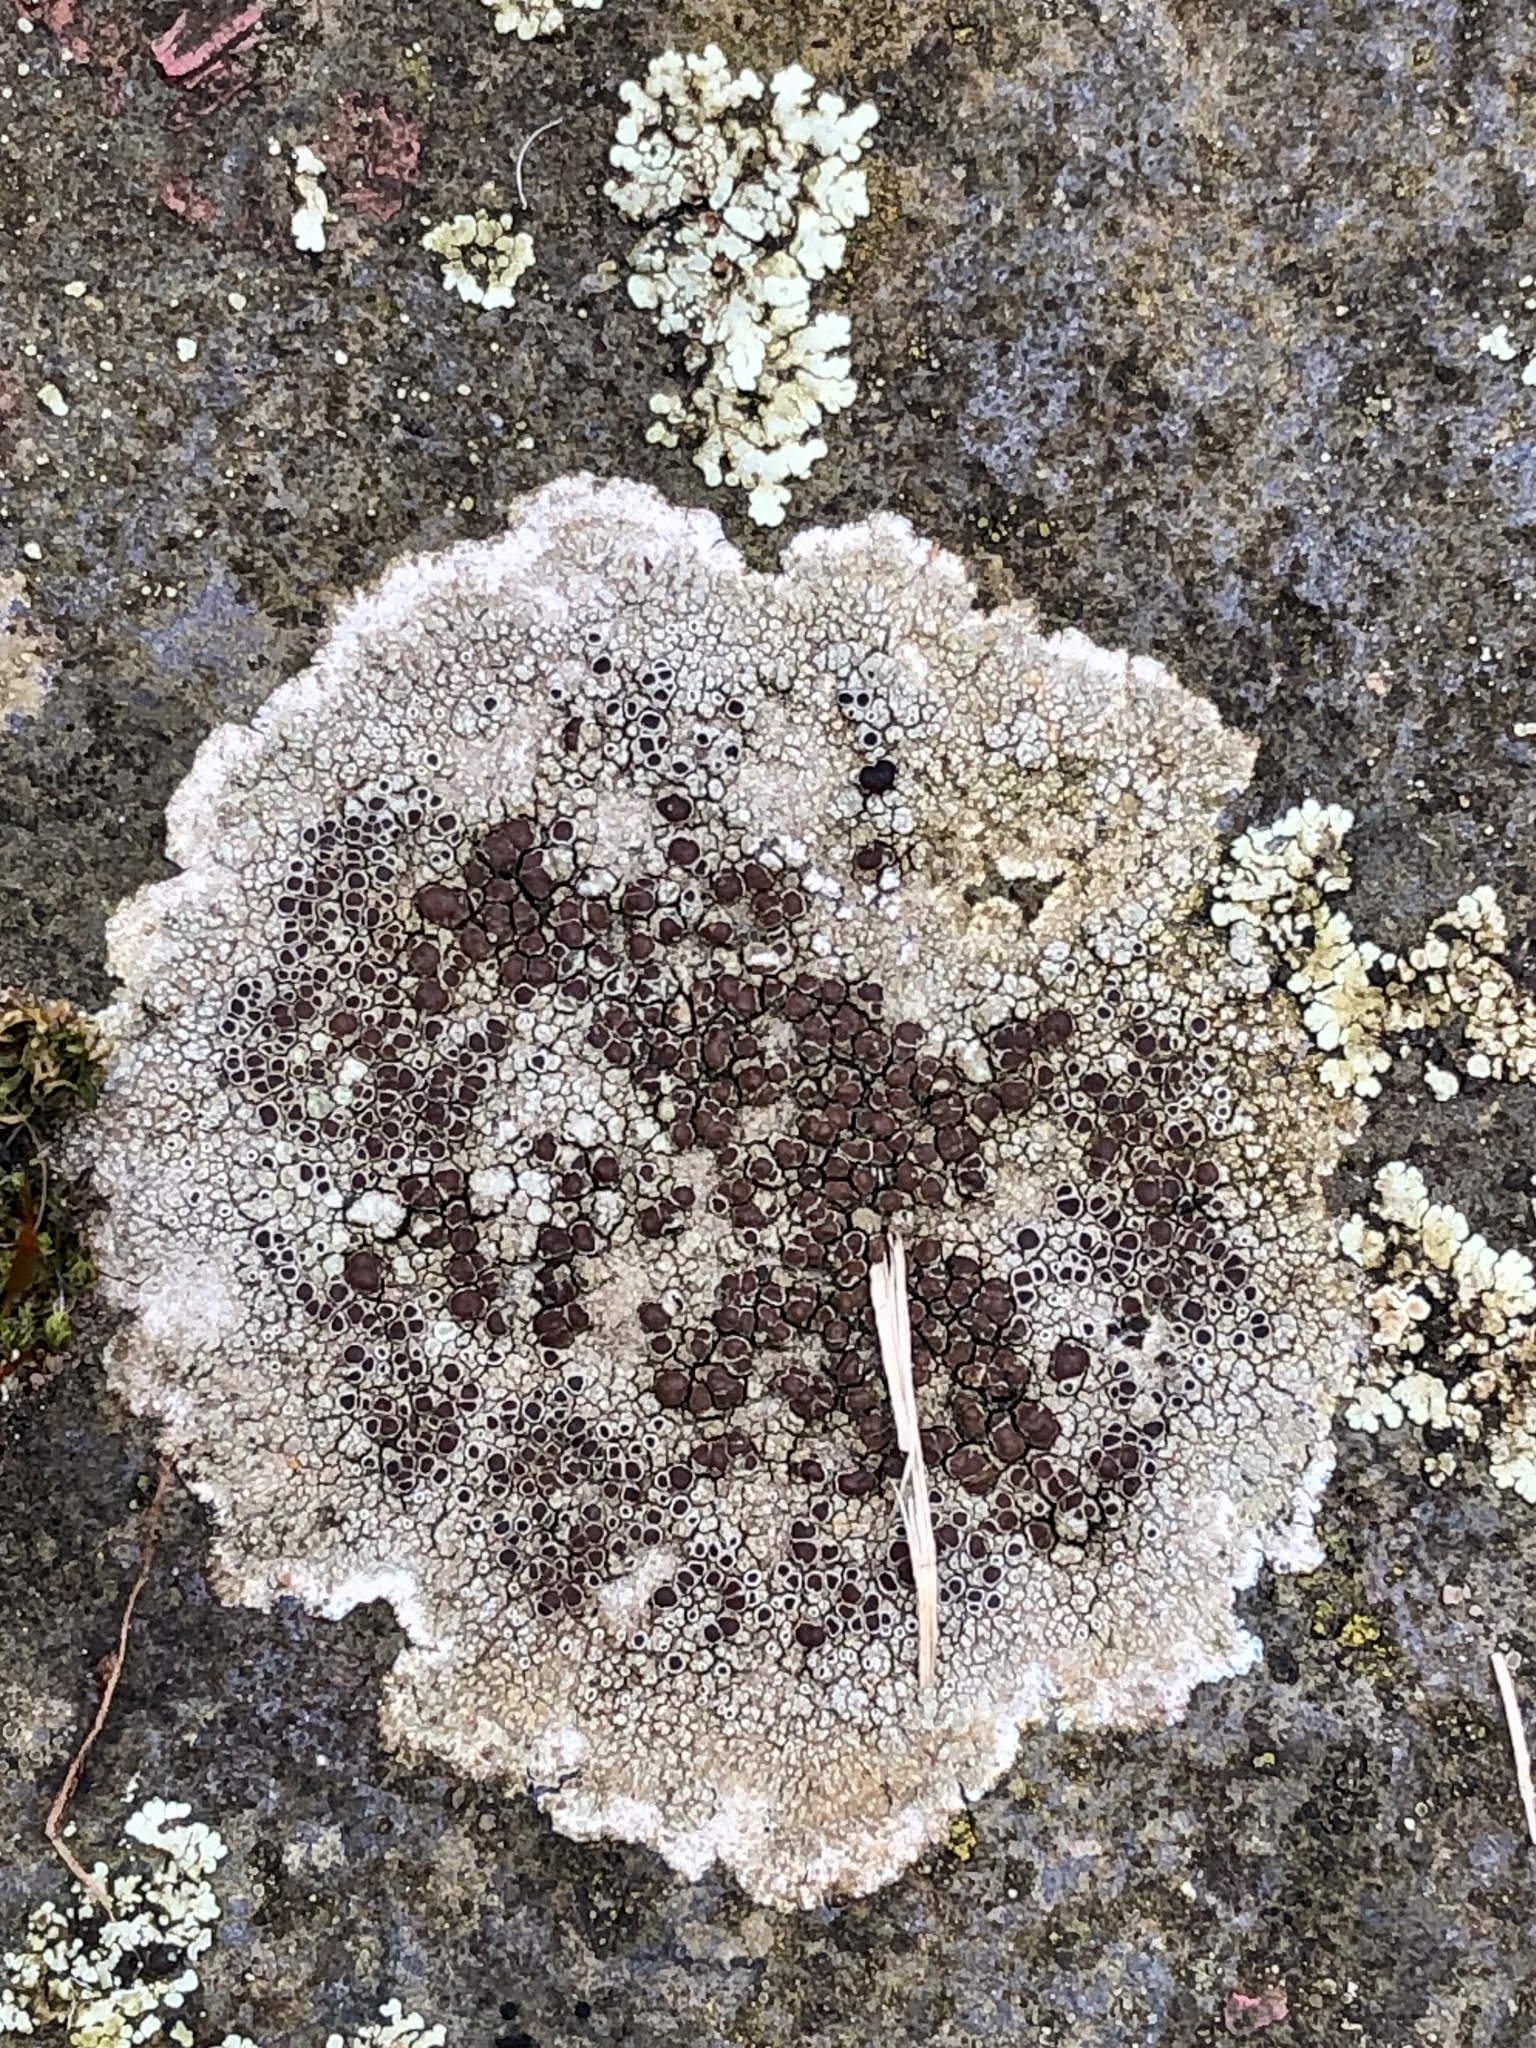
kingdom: Fungi
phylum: Ascomycota
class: Lecanoromycetes
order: Lecanorales
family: Lecanoraceae
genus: Lecanora
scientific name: Lecanora campestris
